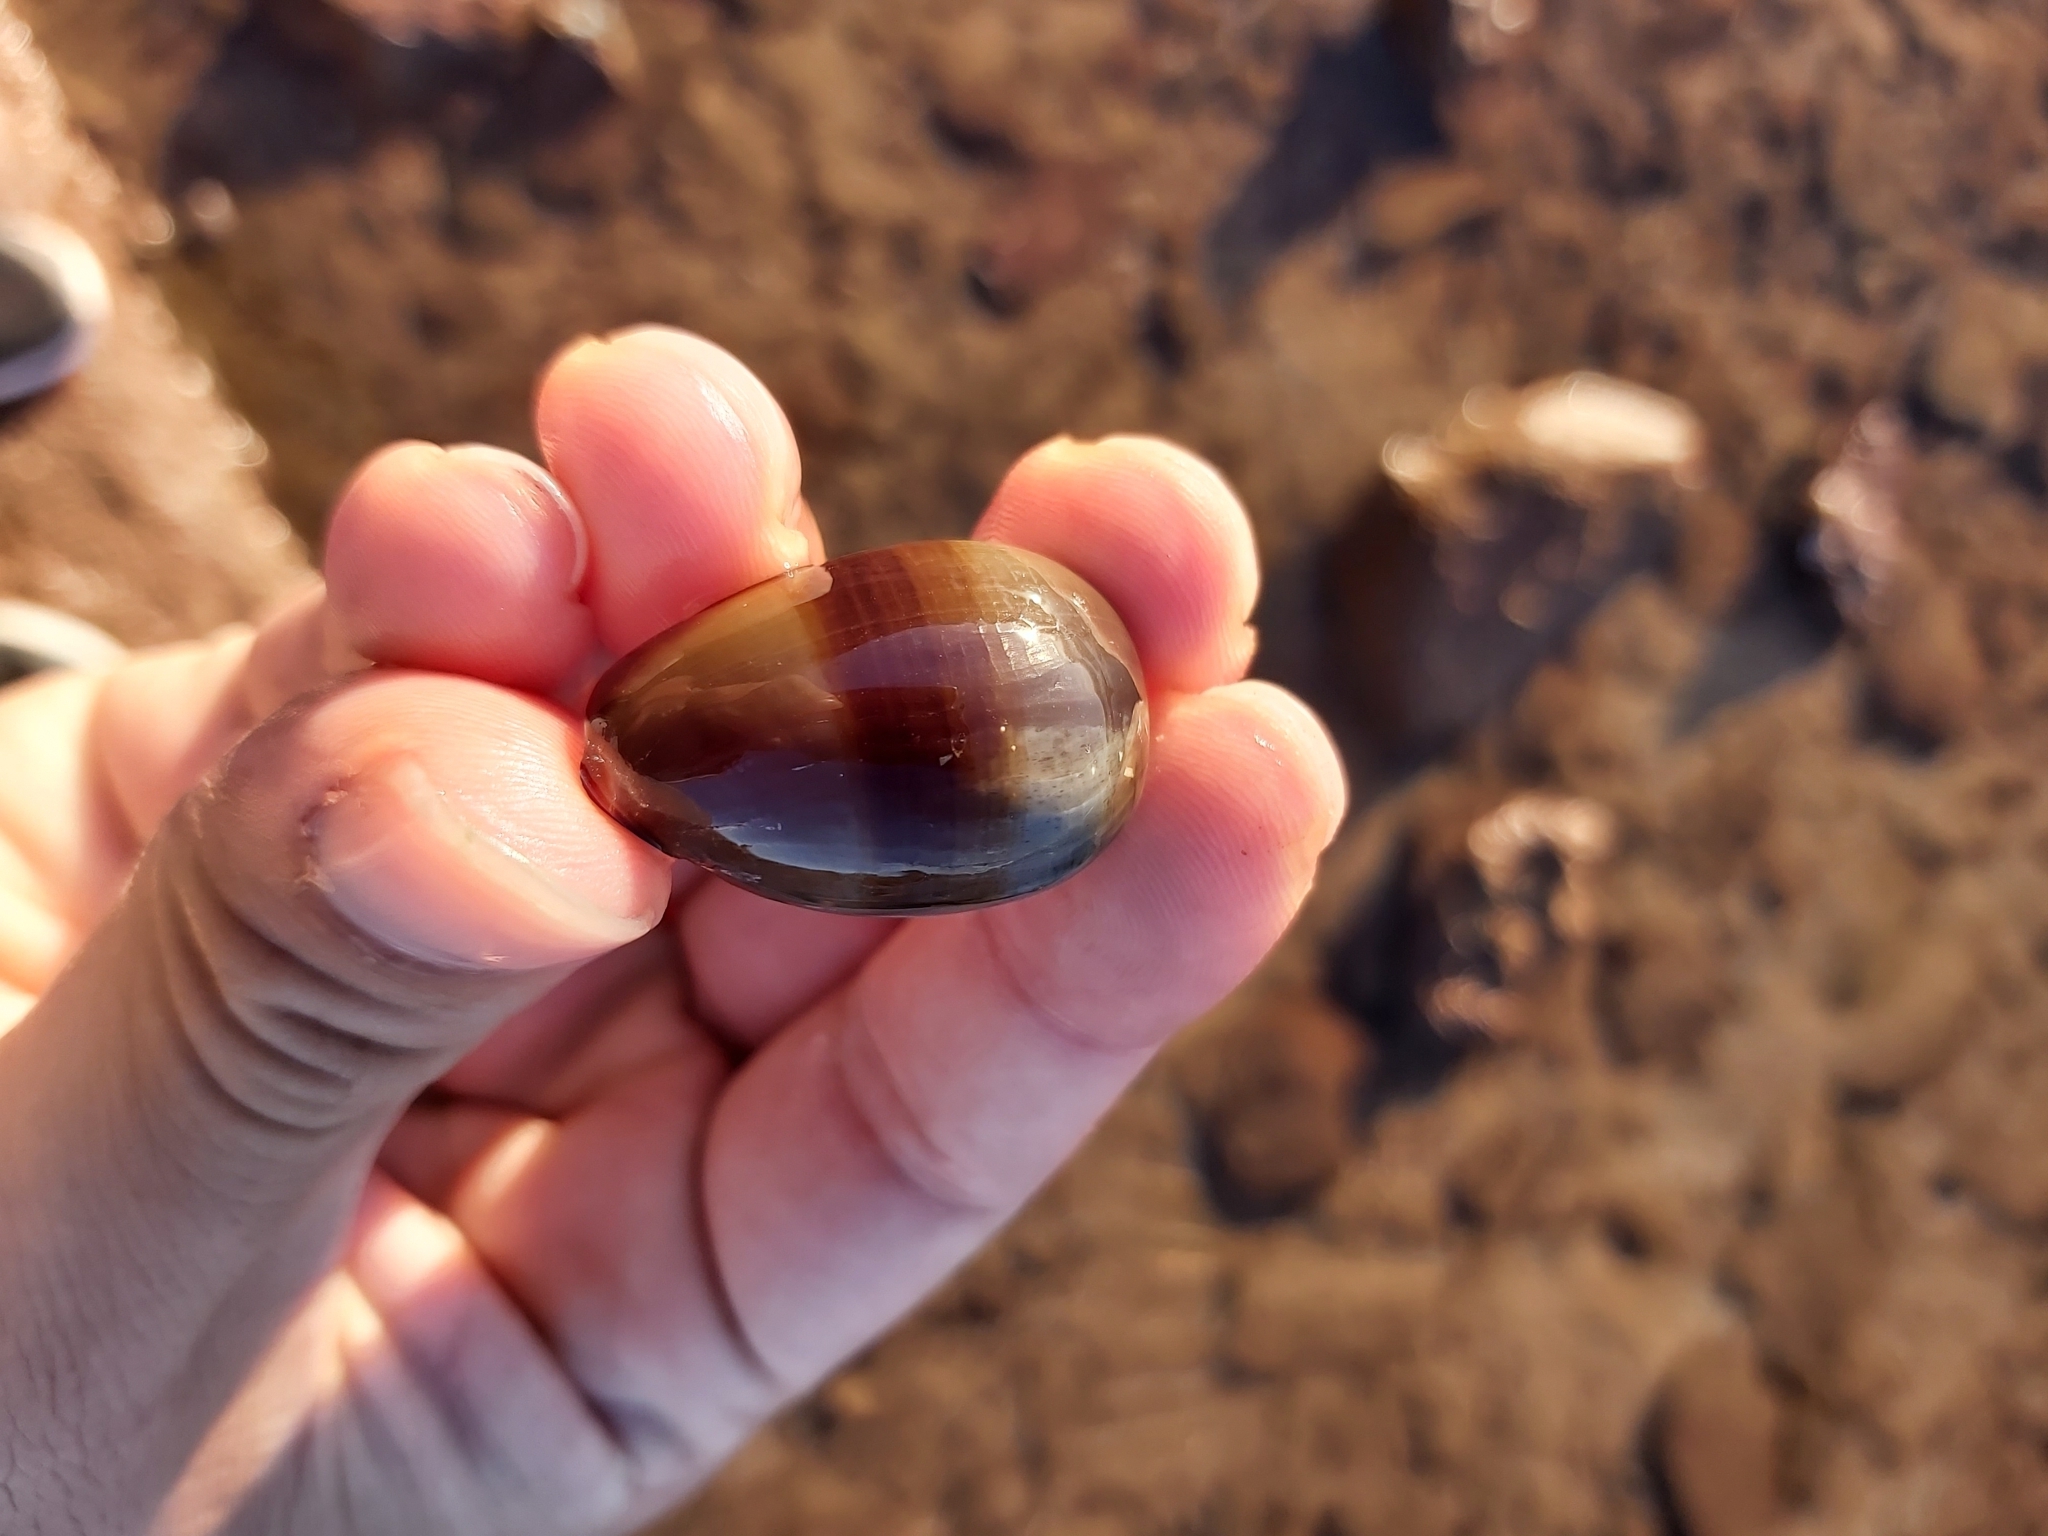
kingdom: Animalia
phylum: Mollusca
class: Gastropoda
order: Littorinimorpha
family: Cypraeidae
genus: Monetaria
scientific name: Monetaria caputserpentis
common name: Serpent's head cowrie
